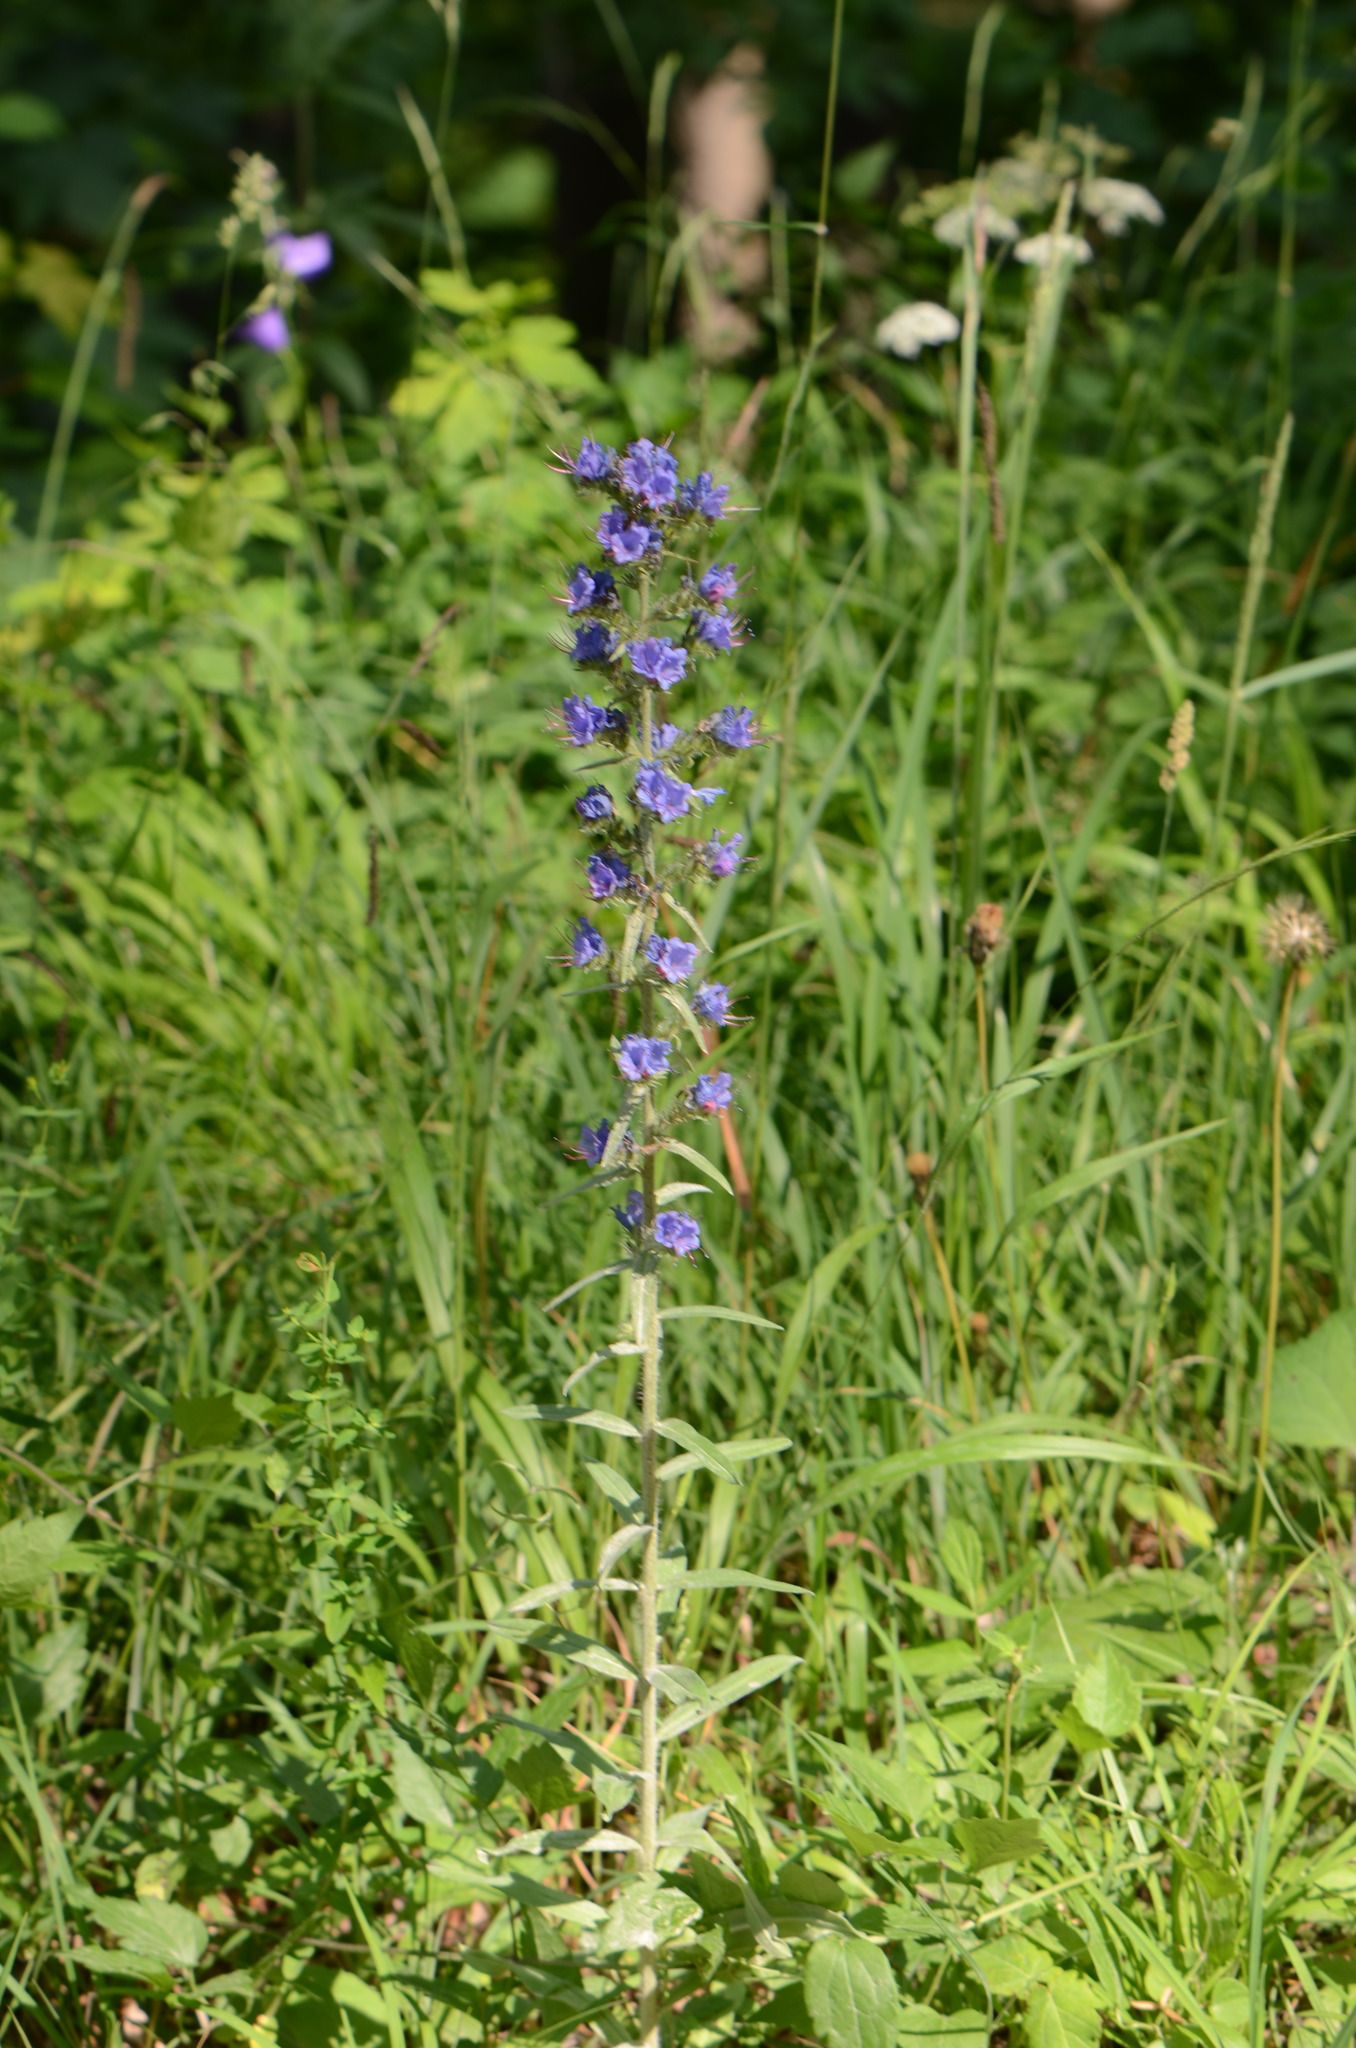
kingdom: Plantae
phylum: Tracheophyta
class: Magnoliopsida
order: Boraginales
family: Boraginaceae
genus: Echium
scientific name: Echium vulgare
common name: Common viper's bugloss
